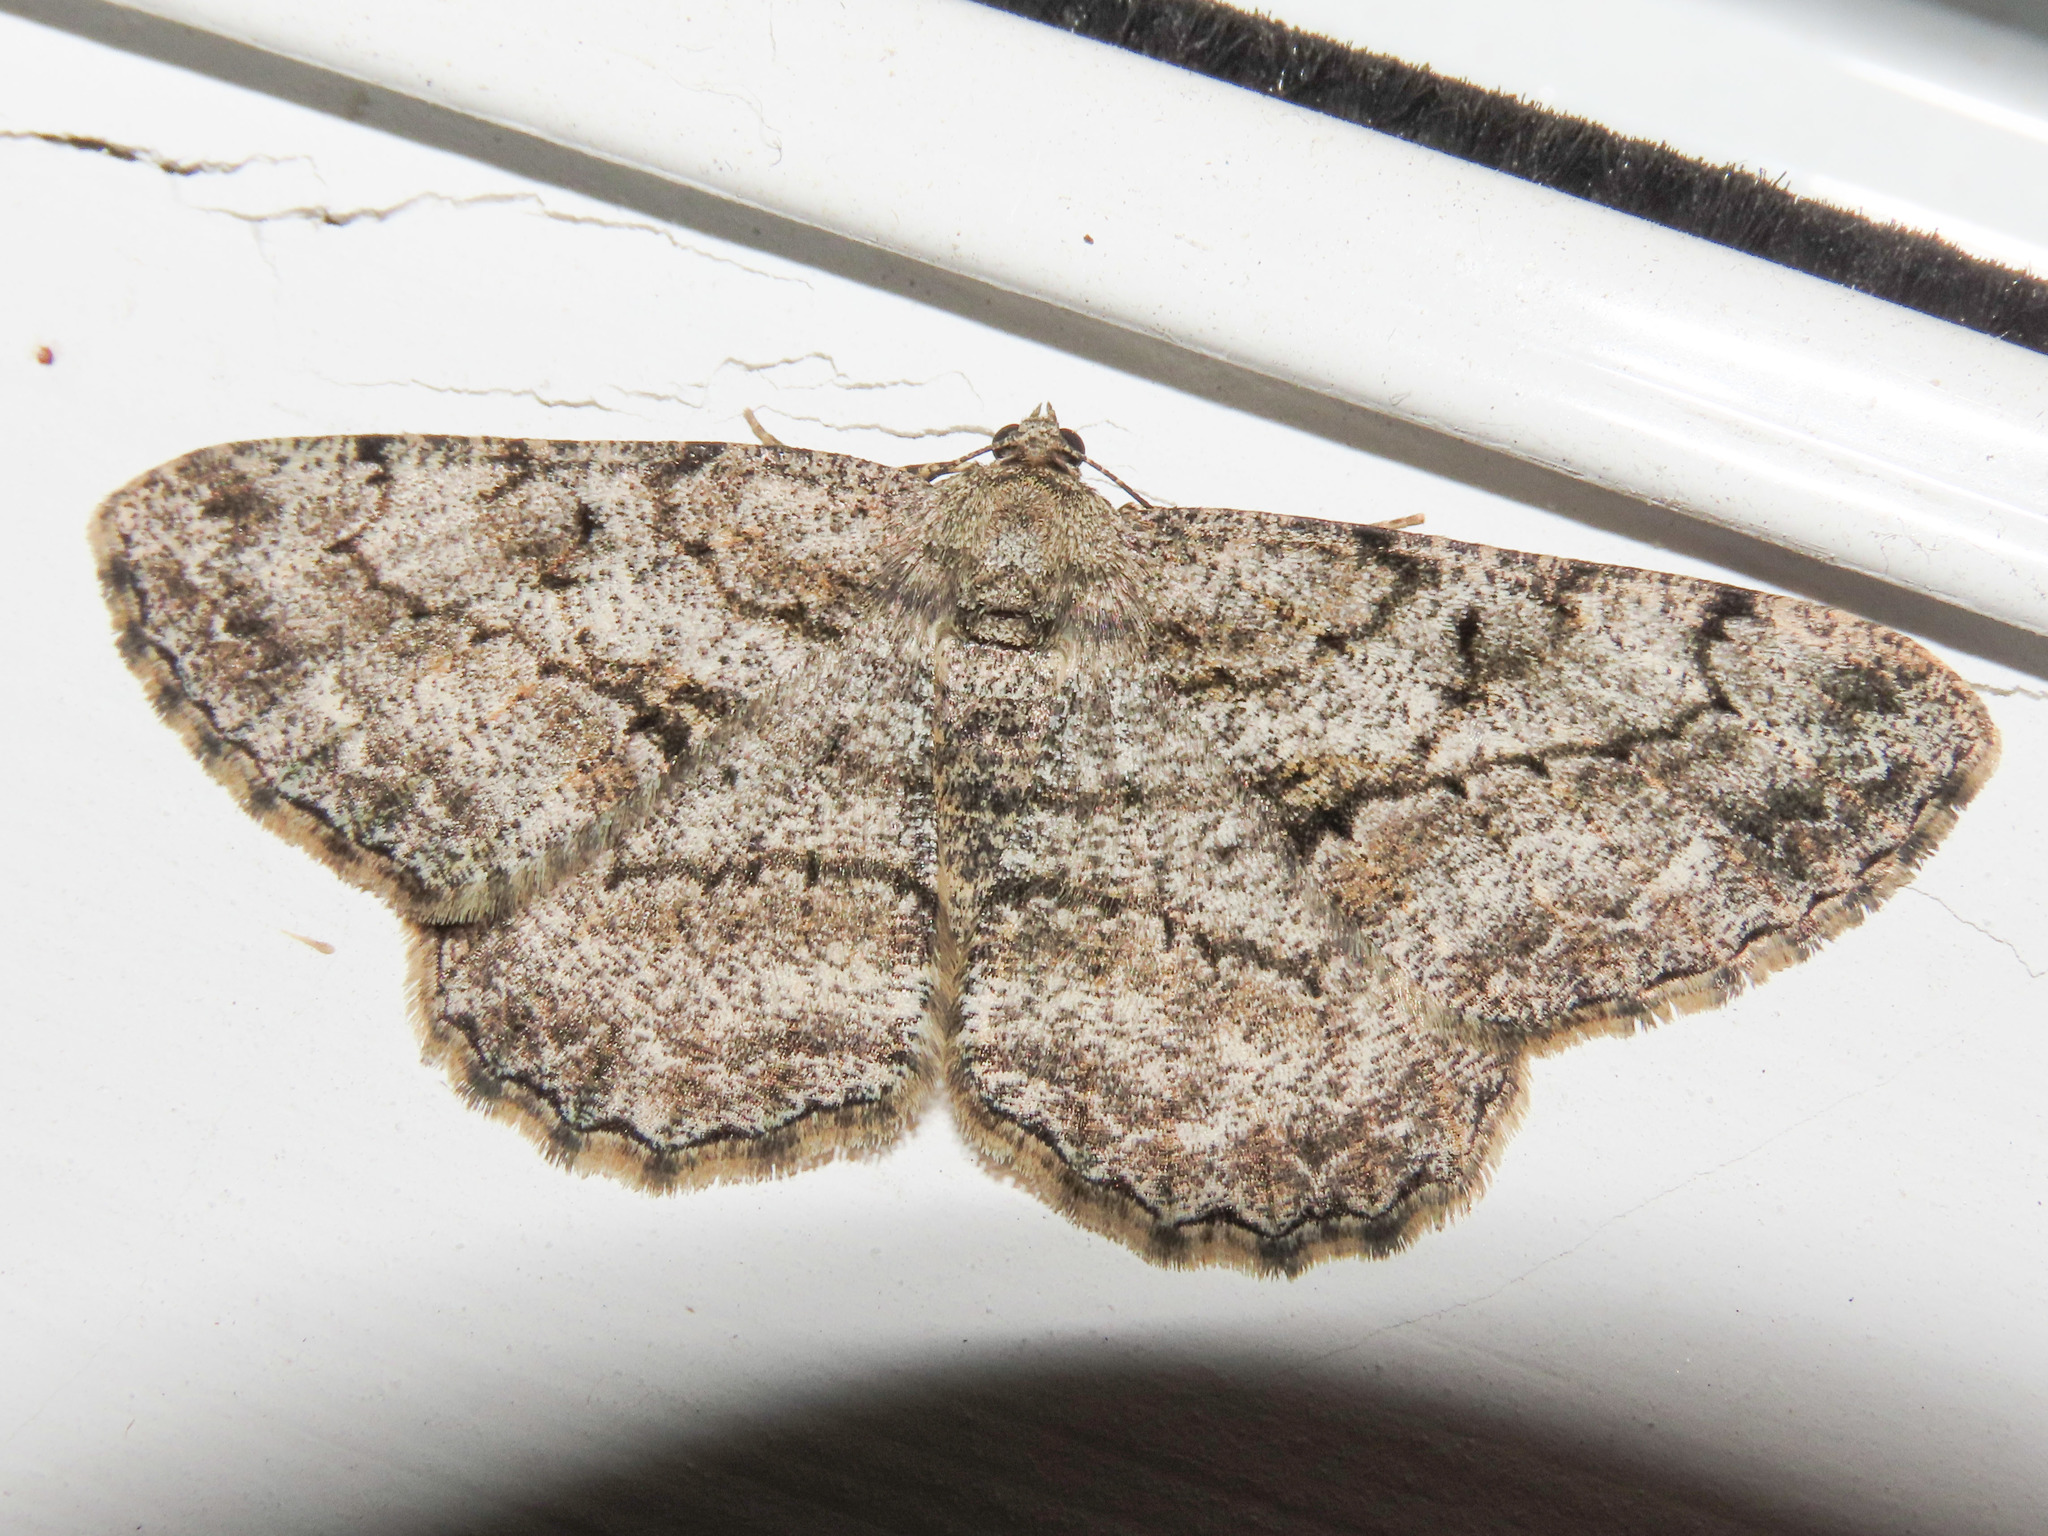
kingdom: Animalia
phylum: Arthropoda
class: Insecta
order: Lepidoptera
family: Geometridae
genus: Peribatodes
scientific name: Peribatodes rhomboidaria
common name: Willow beauty
